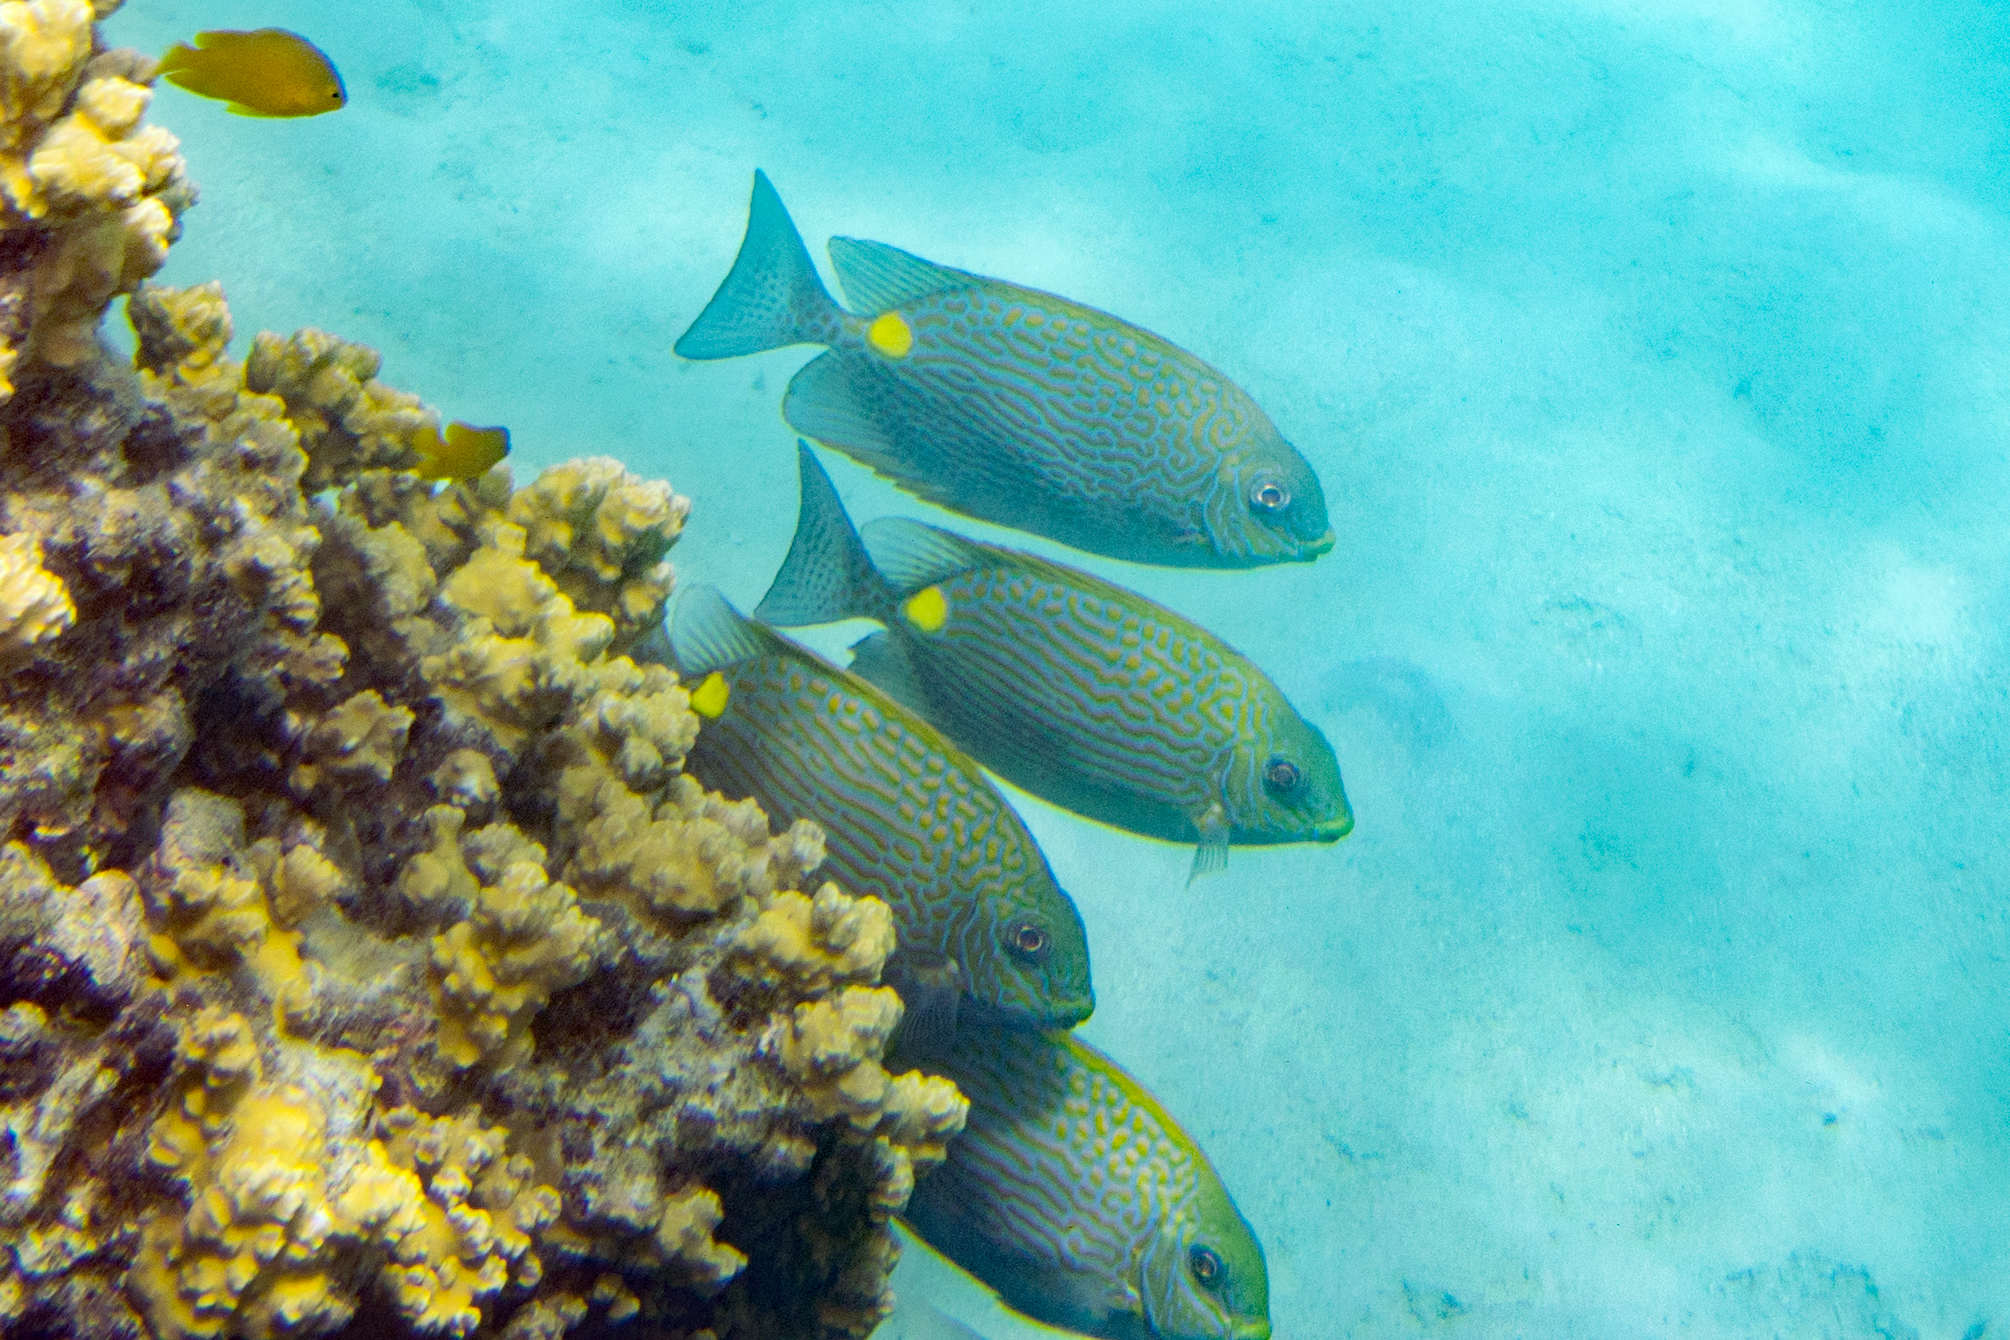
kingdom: Animalia
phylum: Chordata
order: Perciformes
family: Siganidae
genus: Siganus
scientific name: Siganus lineatus
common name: Lined rabbitfish
